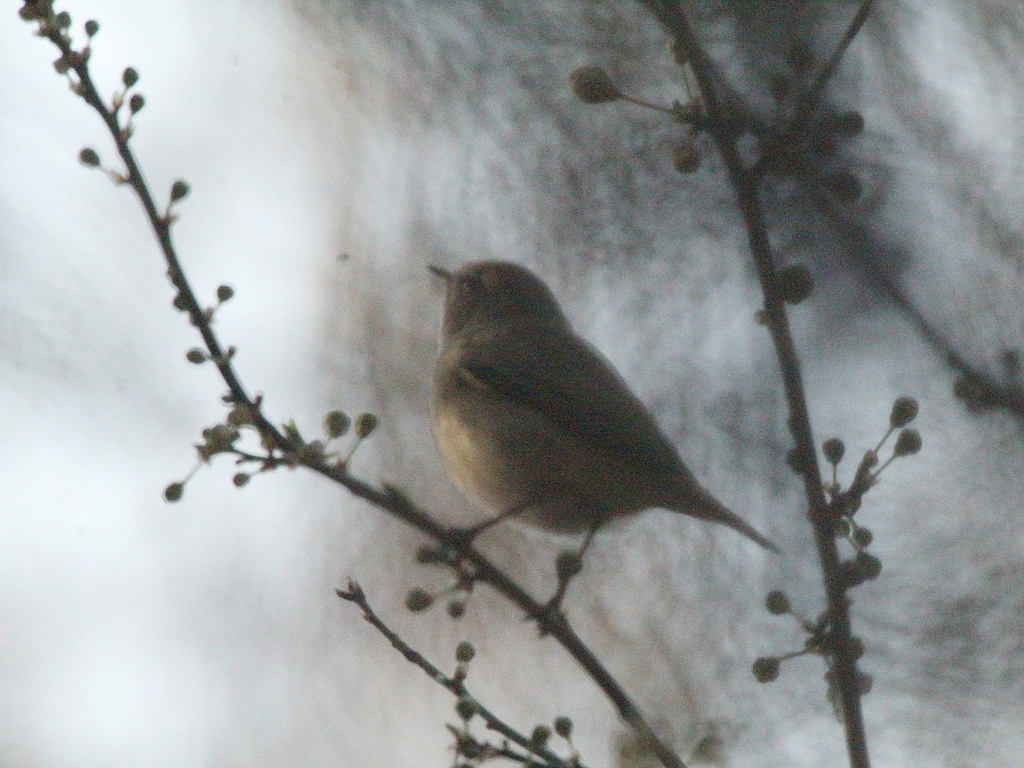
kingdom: Animalia
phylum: Chordata
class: Aves
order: Passeriformes
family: Phylloscopidae
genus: Phylloscopus
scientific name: Phylloscopus collybita
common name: Common chiffchaff
